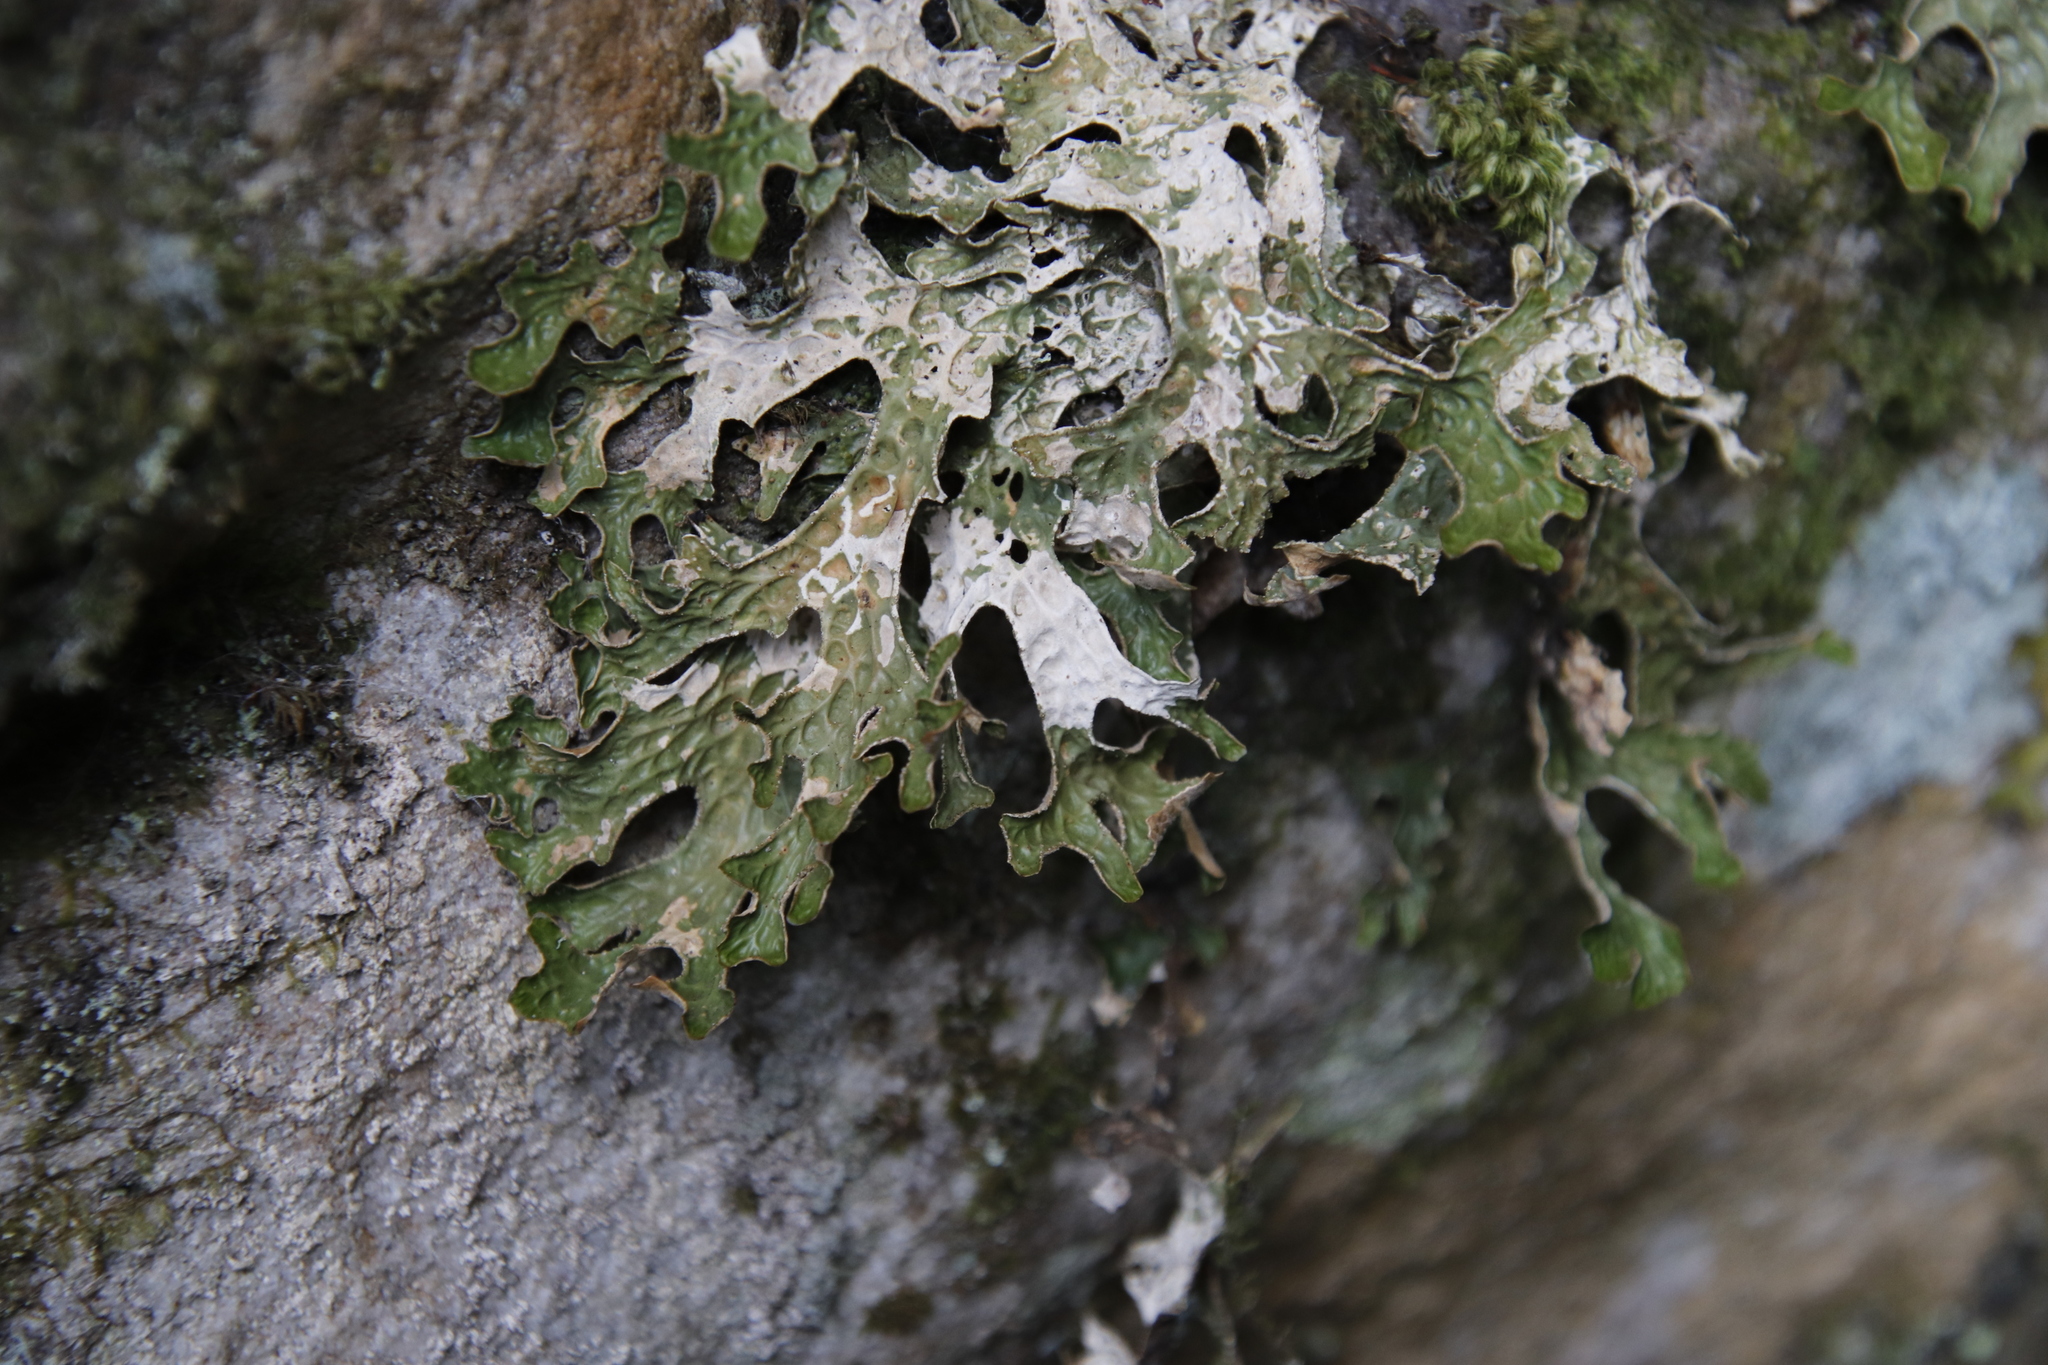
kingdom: Fungi
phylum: Ascomycota
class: Lecanoromycetes
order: Peltigerales
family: Lobariaceae
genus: Lobaria
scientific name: Lobaria pulmonaria
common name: Lungwort
